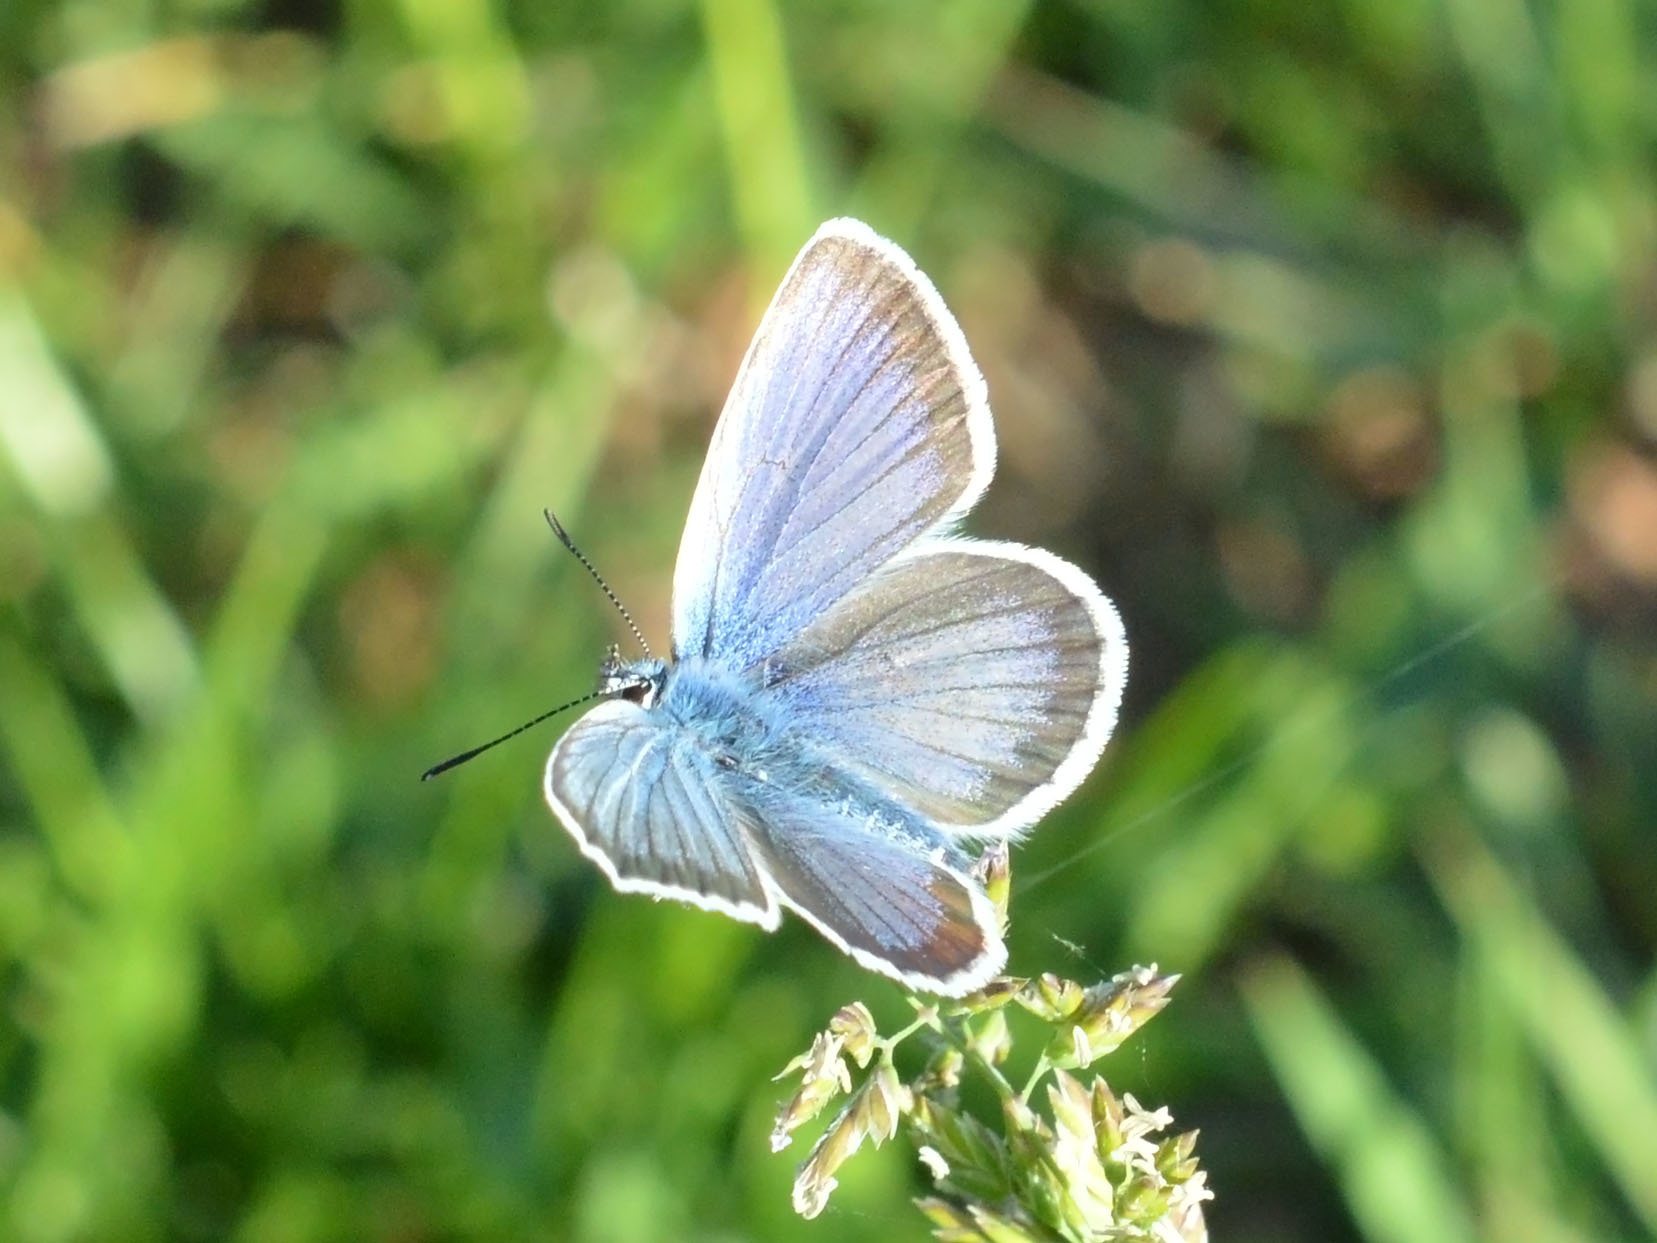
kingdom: Animalia
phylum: Arthropoda
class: Insecta
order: Lepidoptera
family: Lycaenidae
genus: Plebejus
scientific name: Plebejus argus
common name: Silver-studded blue
